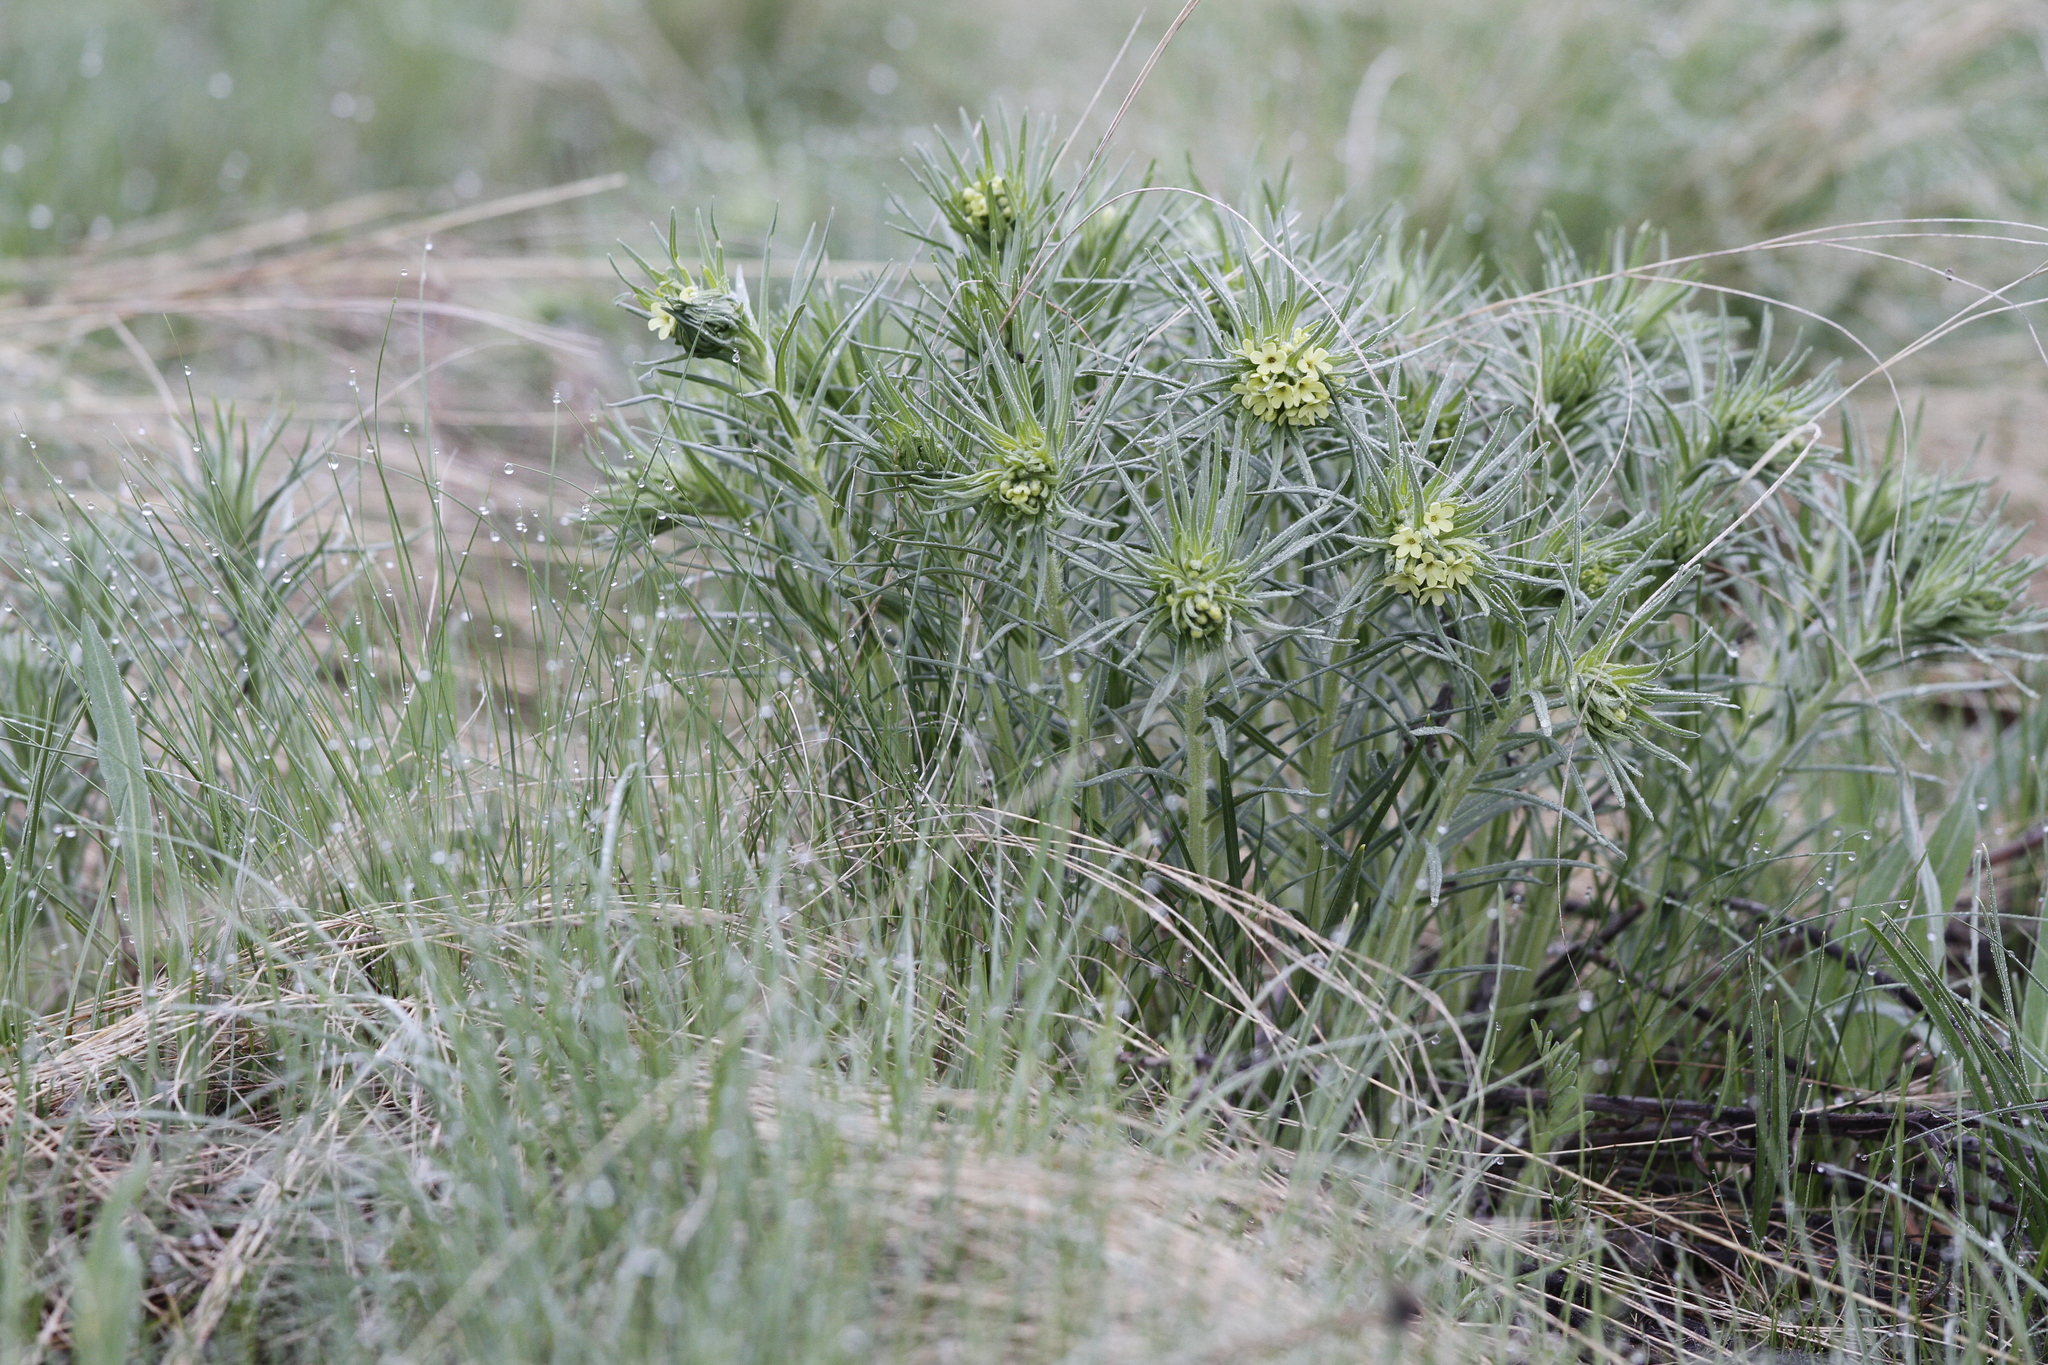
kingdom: Plantae
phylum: Tracheophyta
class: Magnoliopsida
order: Boraginales
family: Boraginaceae
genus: Lithospermum
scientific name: Lithospermum ruderale
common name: Western gromwell
